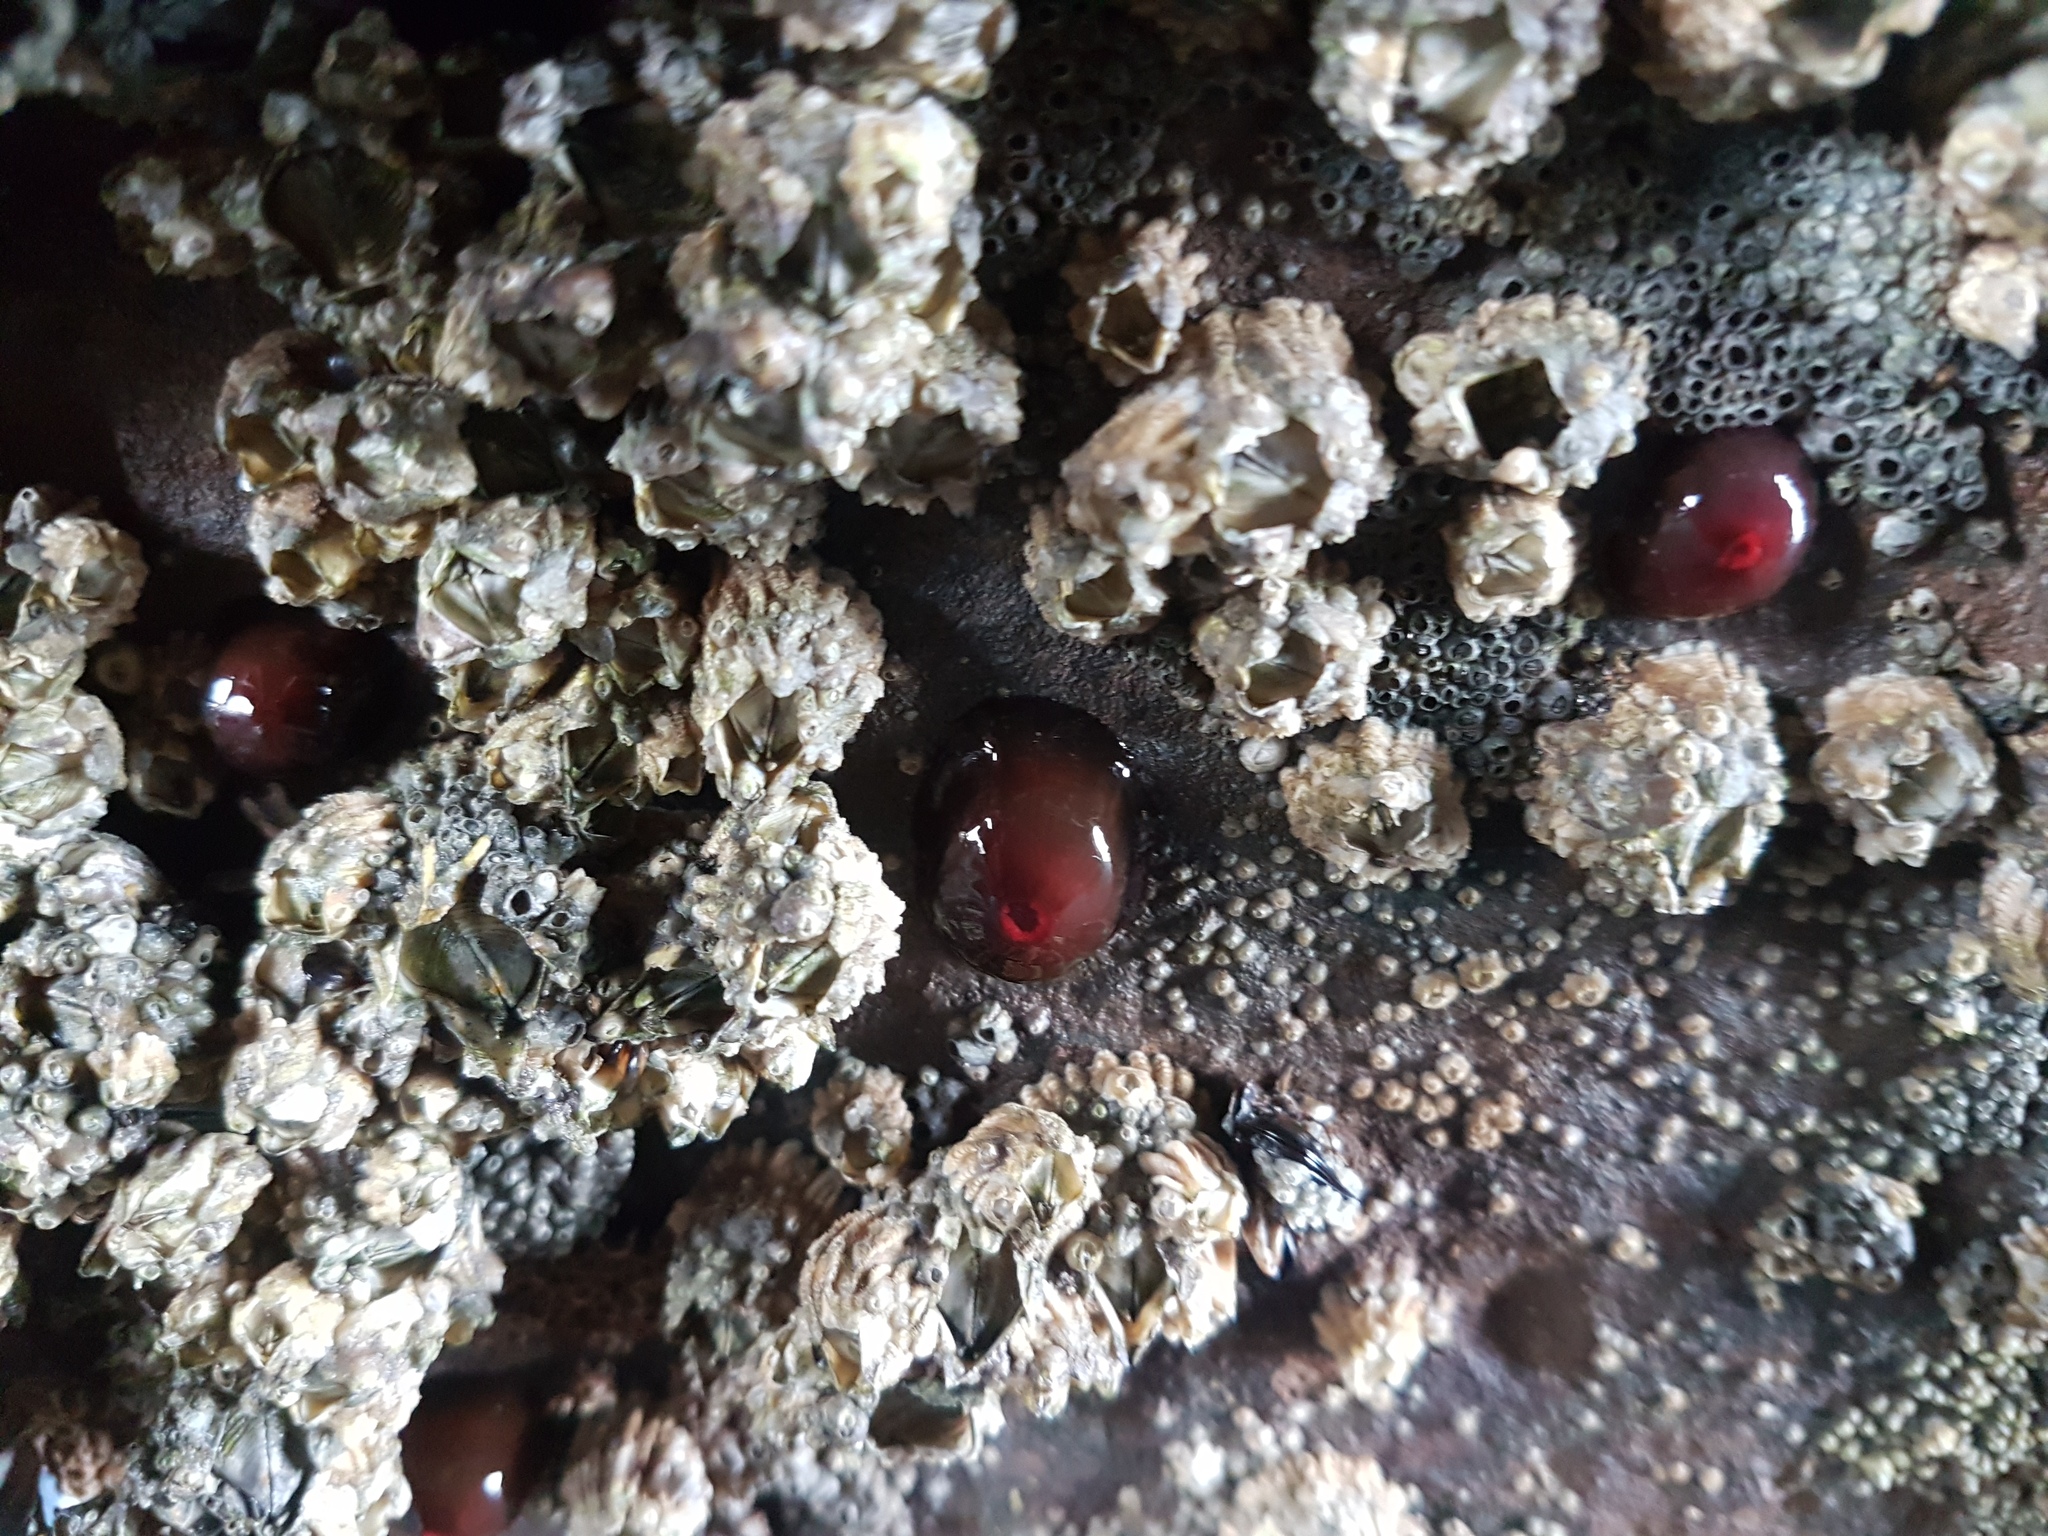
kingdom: Animalia
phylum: Cnidaria
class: Anthozoa
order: Actiniaria
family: Actiniidae
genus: Actinia
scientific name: Actinia tenebrosa
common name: Waratah anemone
